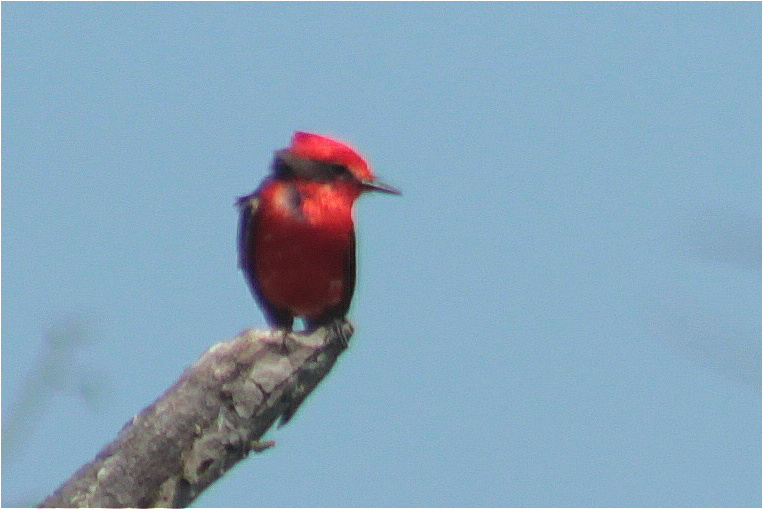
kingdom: Animalia
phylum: Chordata
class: Aves
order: Passeriformes
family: Tyrannidae
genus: Pyrocephalus
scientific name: Pyrocephalus rubinus
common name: Vermilion flycatcher
